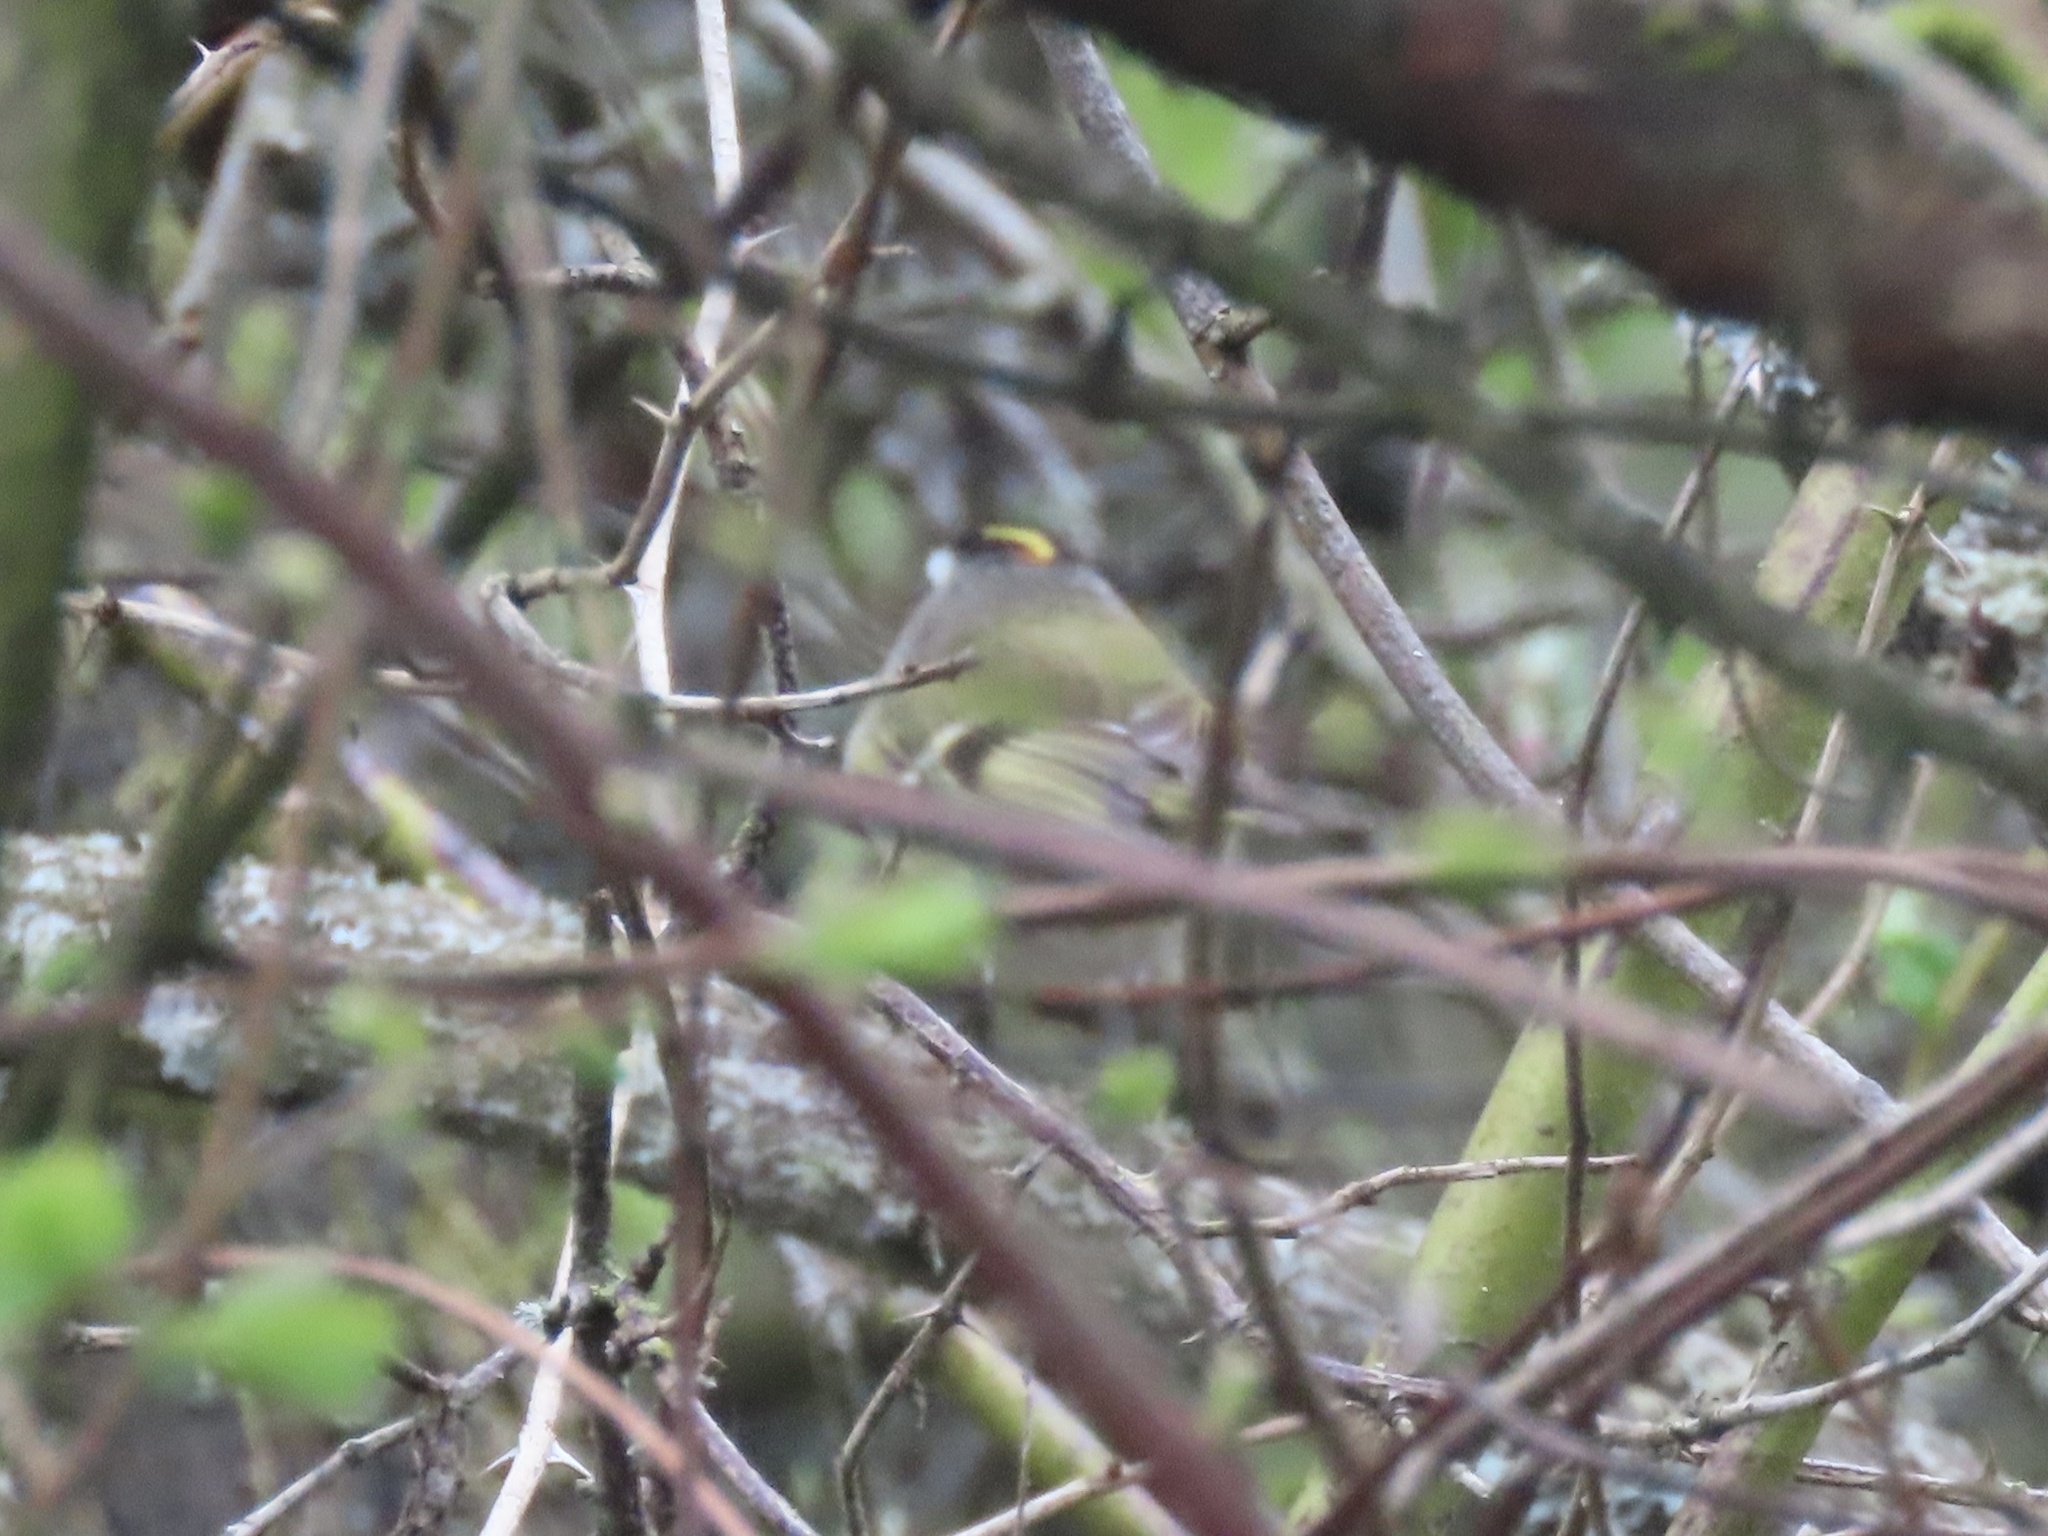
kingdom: Animalia
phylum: Chordata
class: Aves
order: Passeriformes
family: Regulidae
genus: Regulus
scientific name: Regulus satrapa
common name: Golden-crowned kinglet
